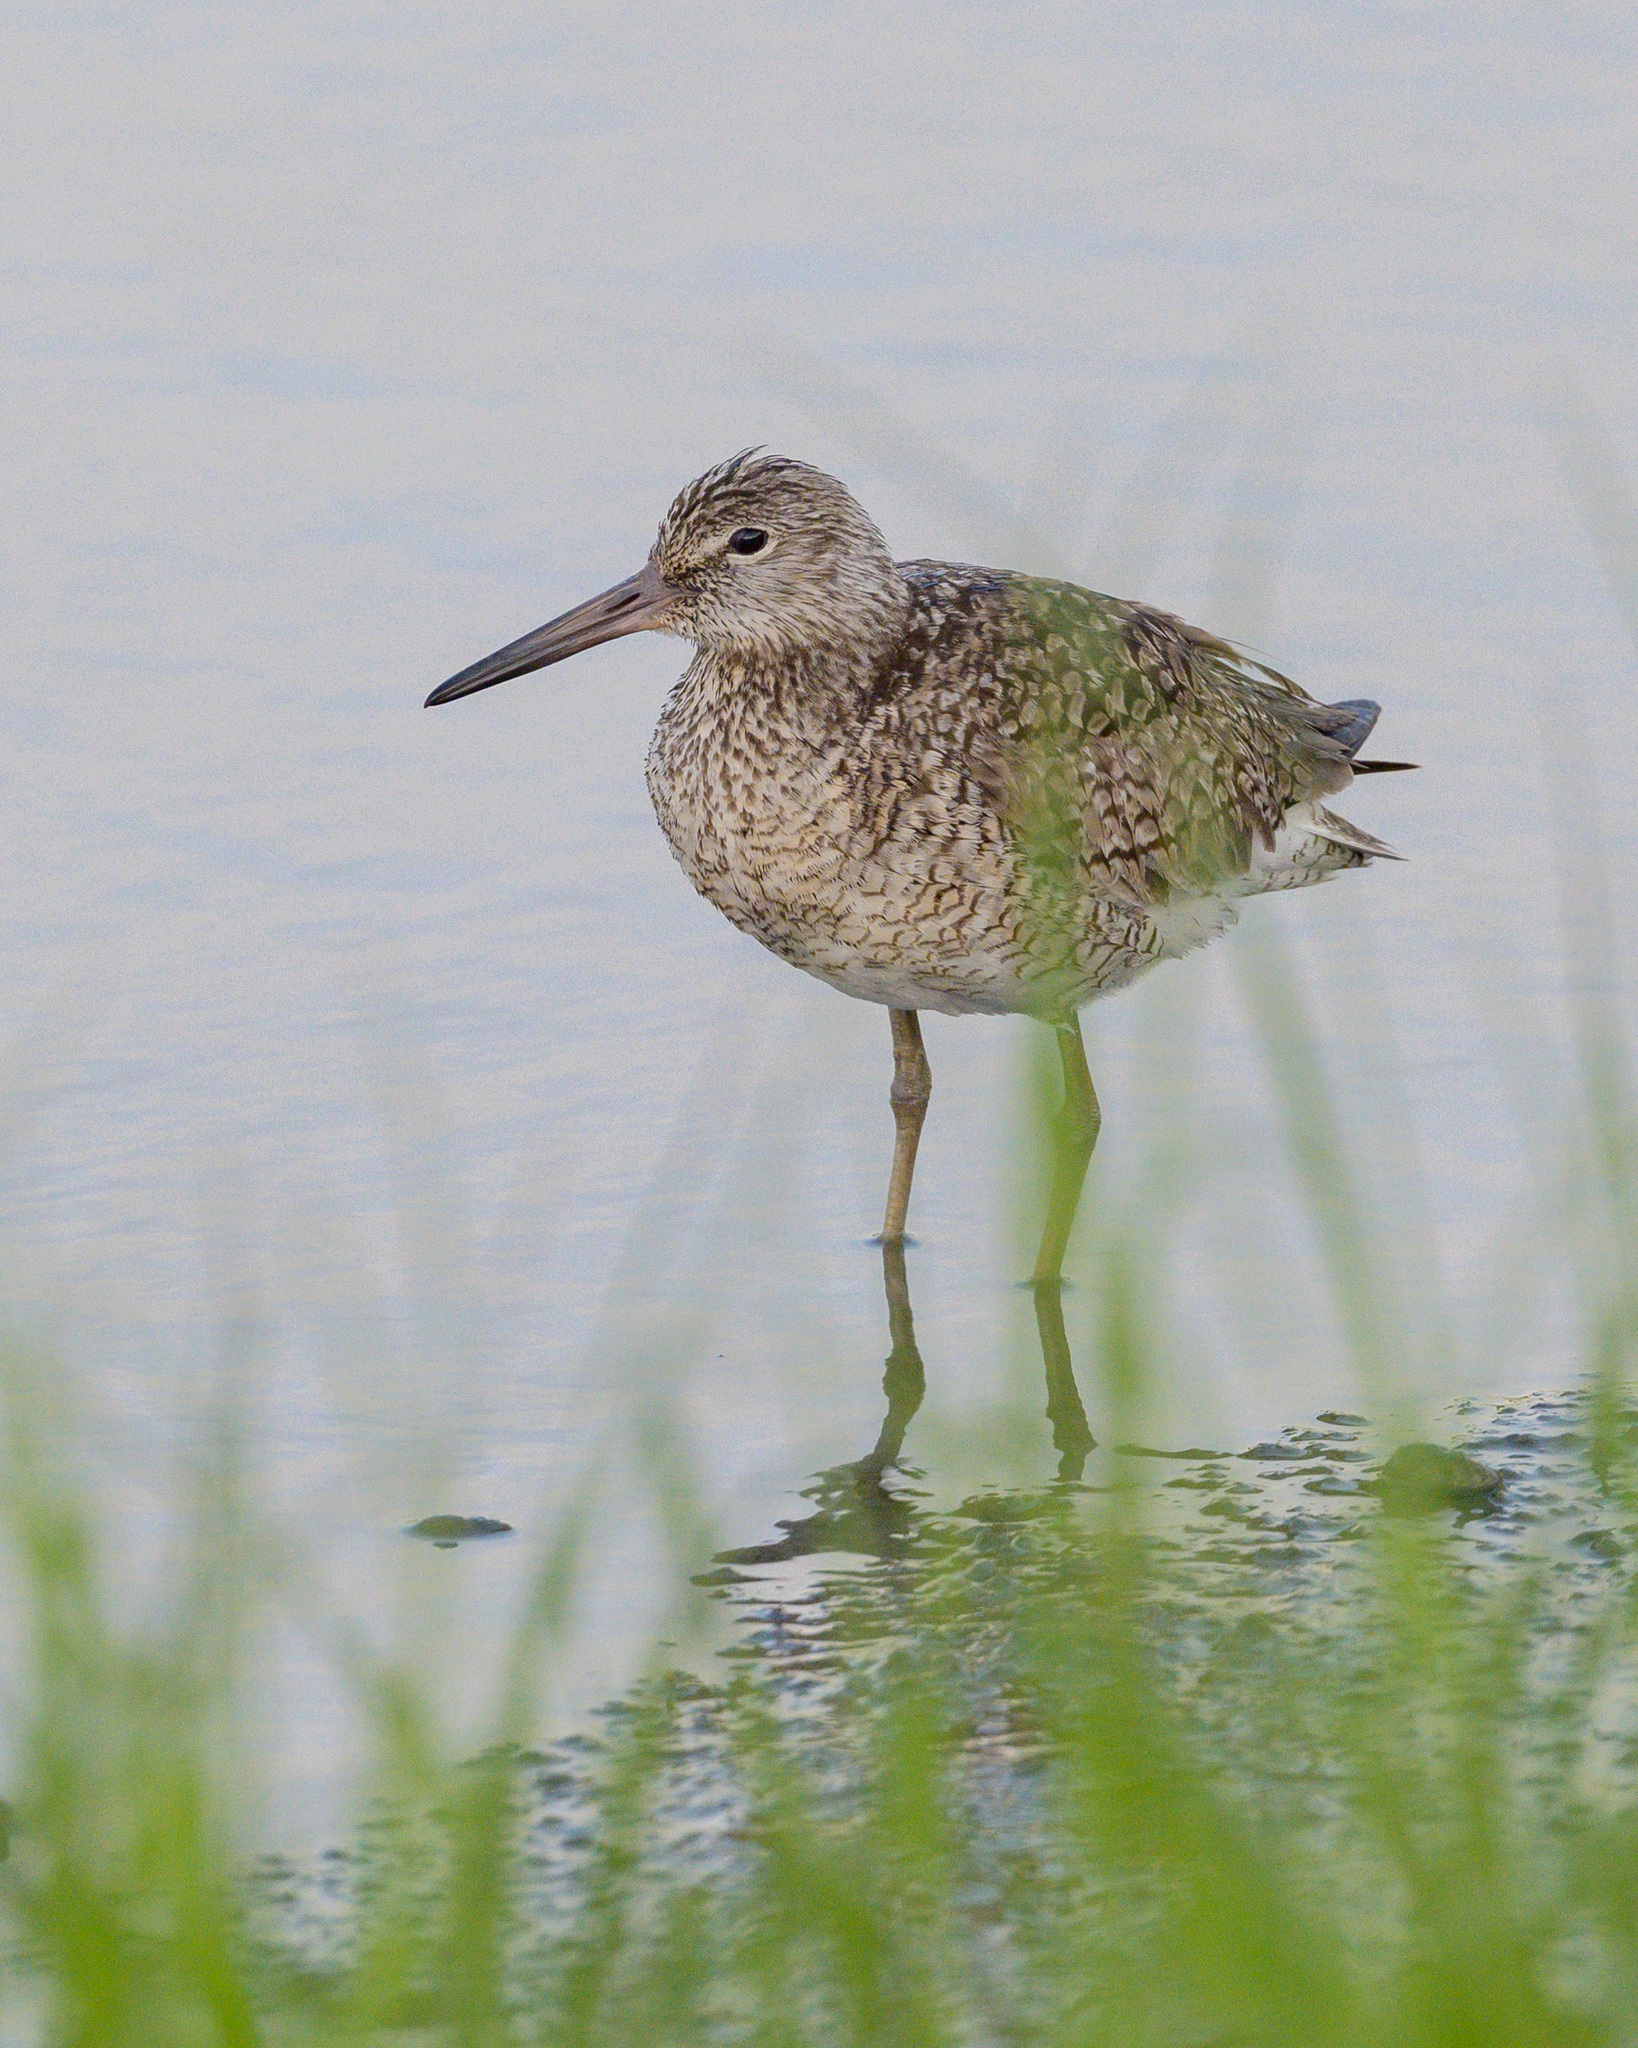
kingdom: Animalia
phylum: Chordata
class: Aves
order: Charadriiformes
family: Scolopacidae
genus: Tringa
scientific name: Tringa semipalmata
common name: Willet
